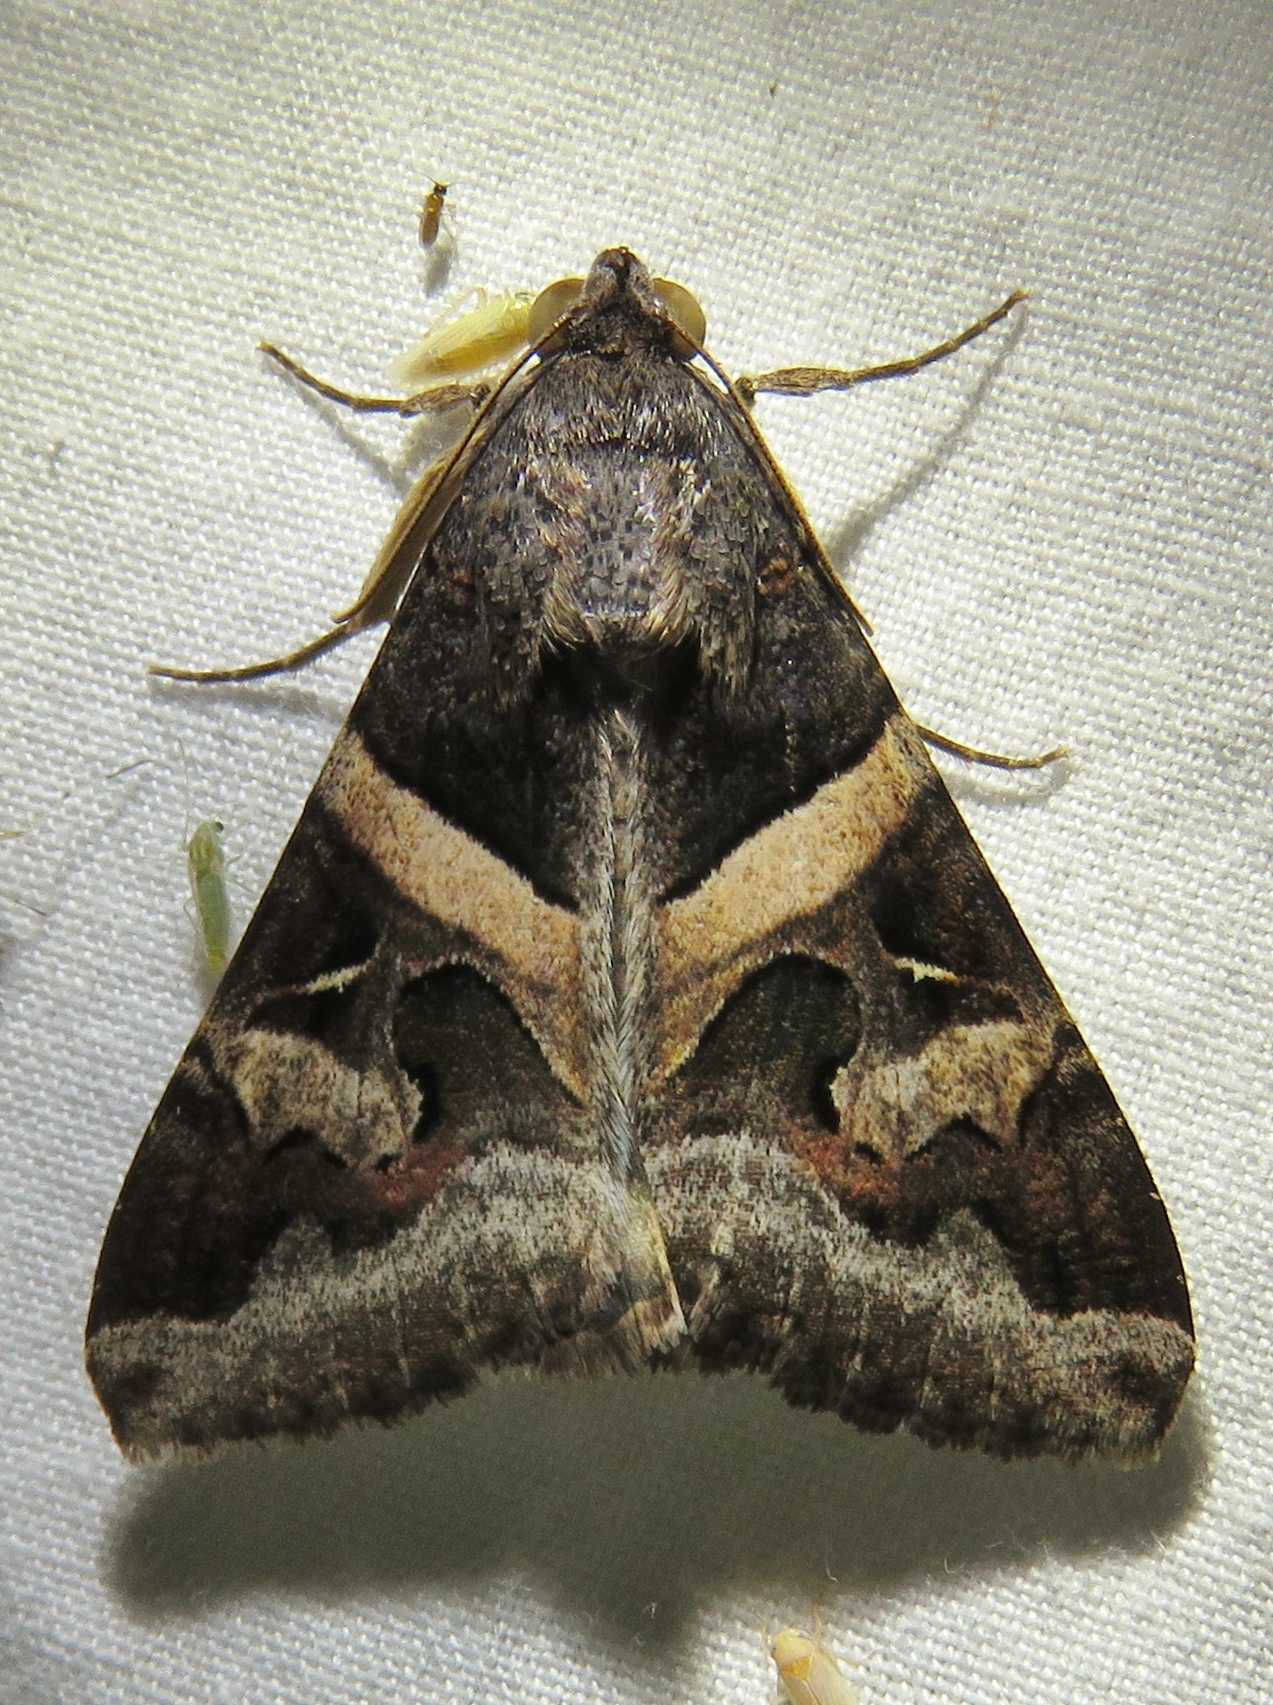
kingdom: Animalia
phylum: Arthropoda
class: Insecta
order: Lepidoptera
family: Erebidae
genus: Melipotis
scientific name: Melipotis indomita
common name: Moth
